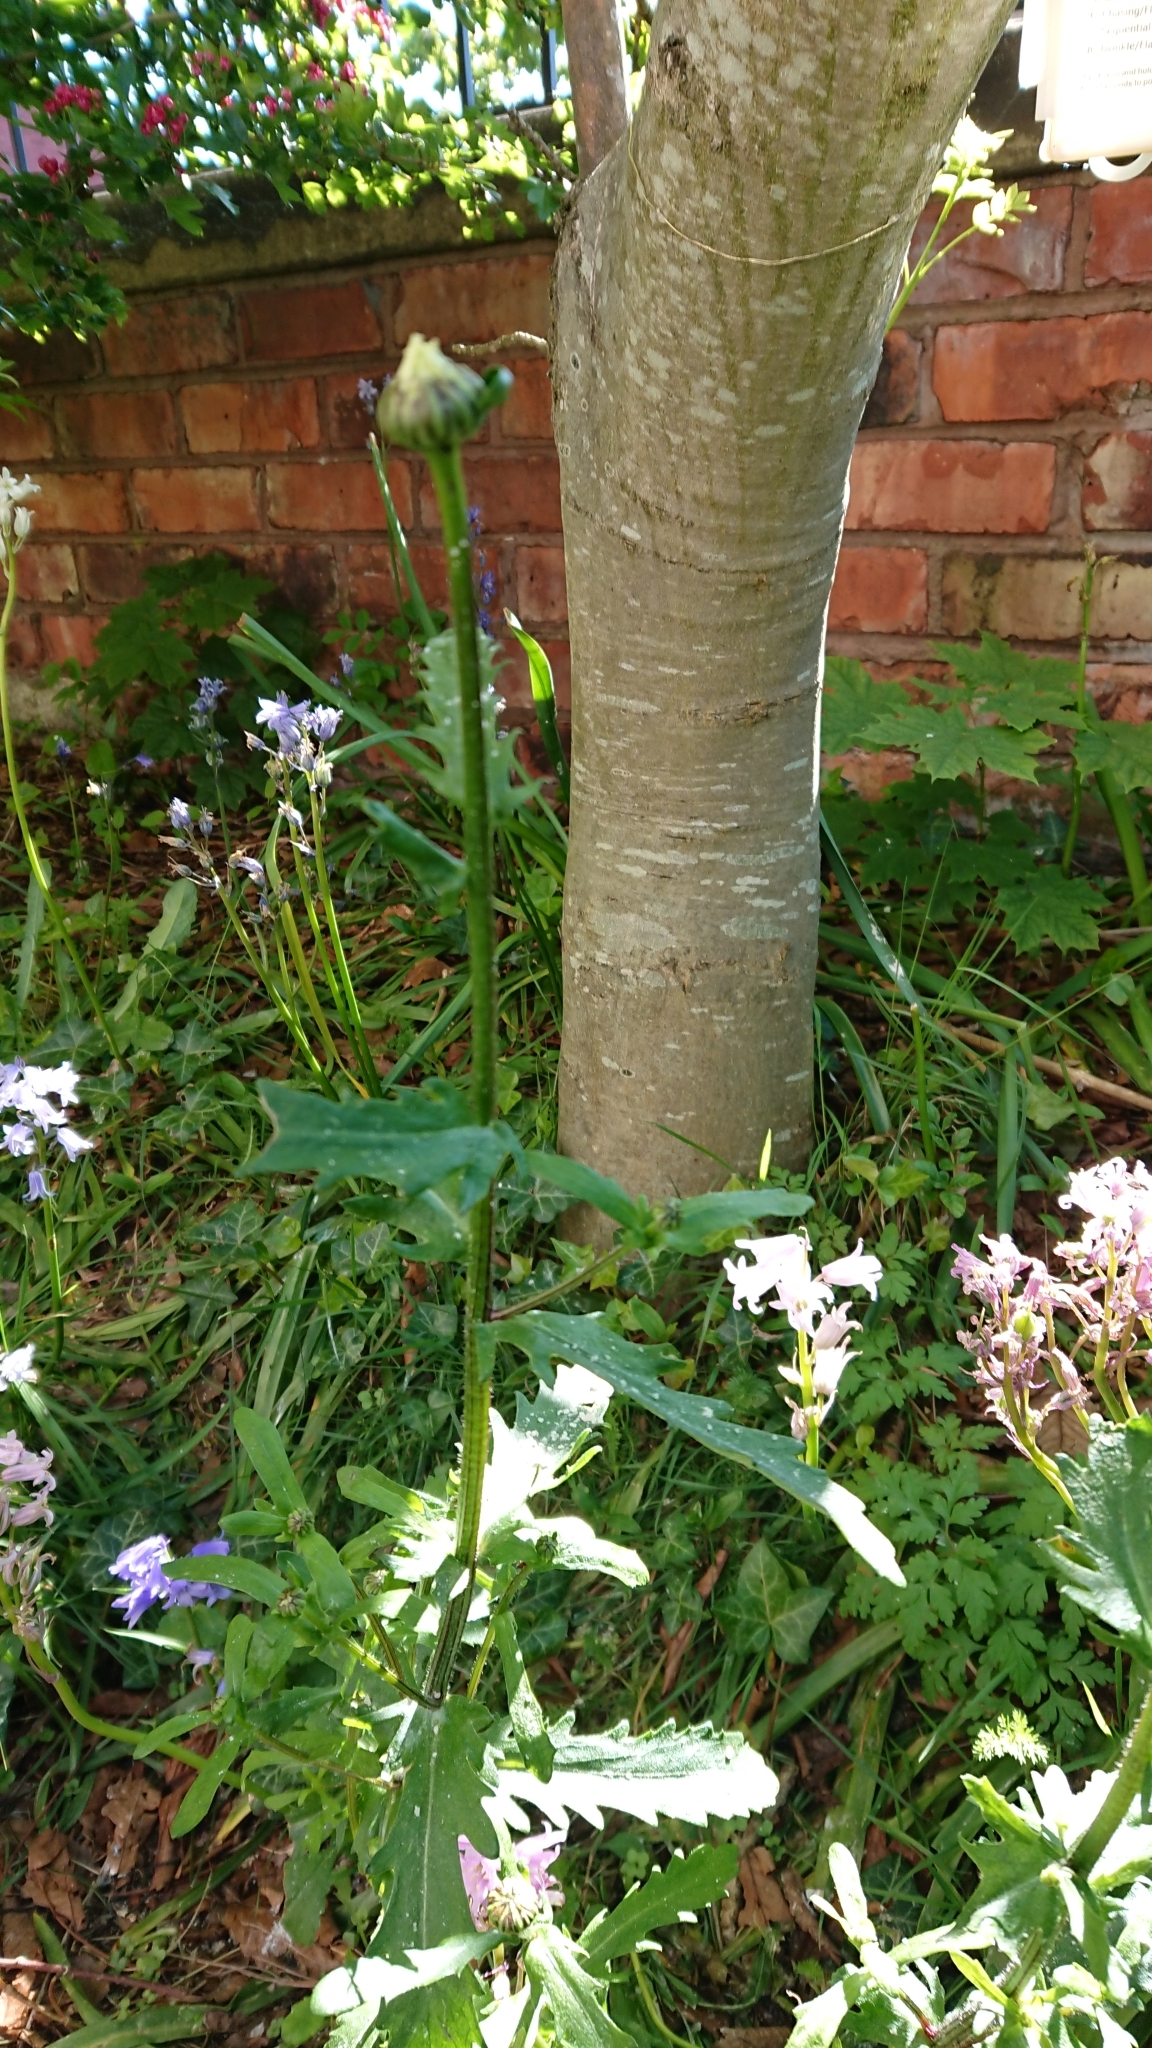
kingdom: Plantae
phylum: Tracheophyta
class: Magnoliopsida
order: Asterales
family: Asteraceae
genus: Leucanthemum
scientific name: Leucanthemum vulgare
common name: Oxeye daisy
